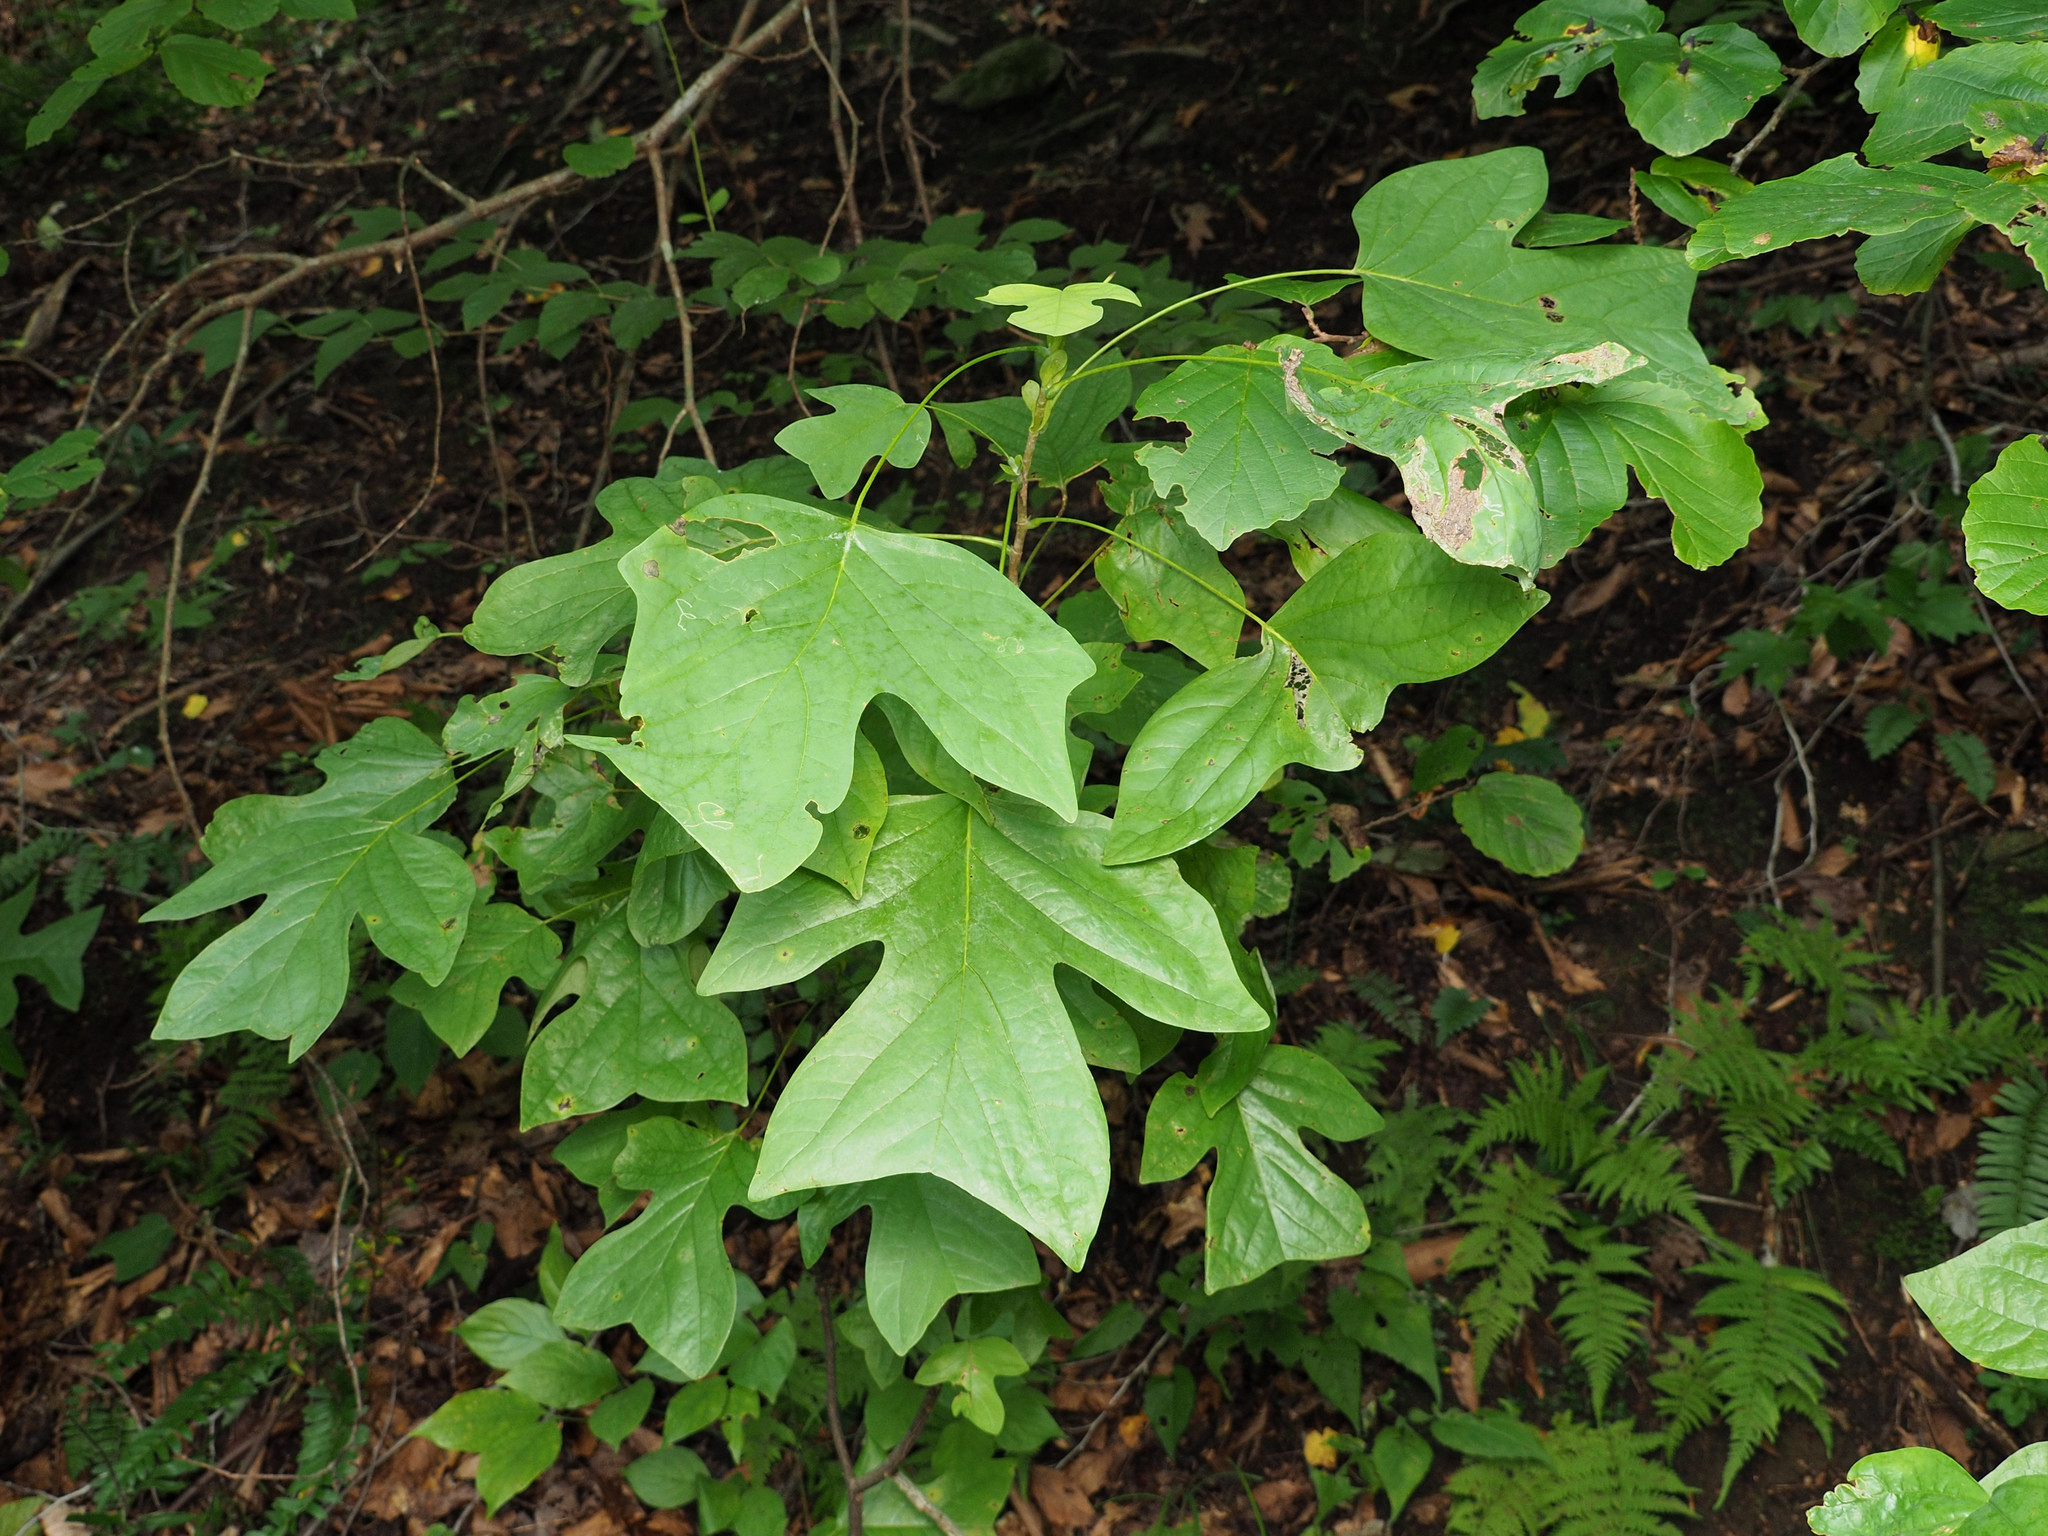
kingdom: Plantae
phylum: Tracheophyta
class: Magnoliopsida
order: Magnoliales
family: Magnoliaceae
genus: Liriodendron
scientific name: Liriodendron tulipifera
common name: Tulip tree
